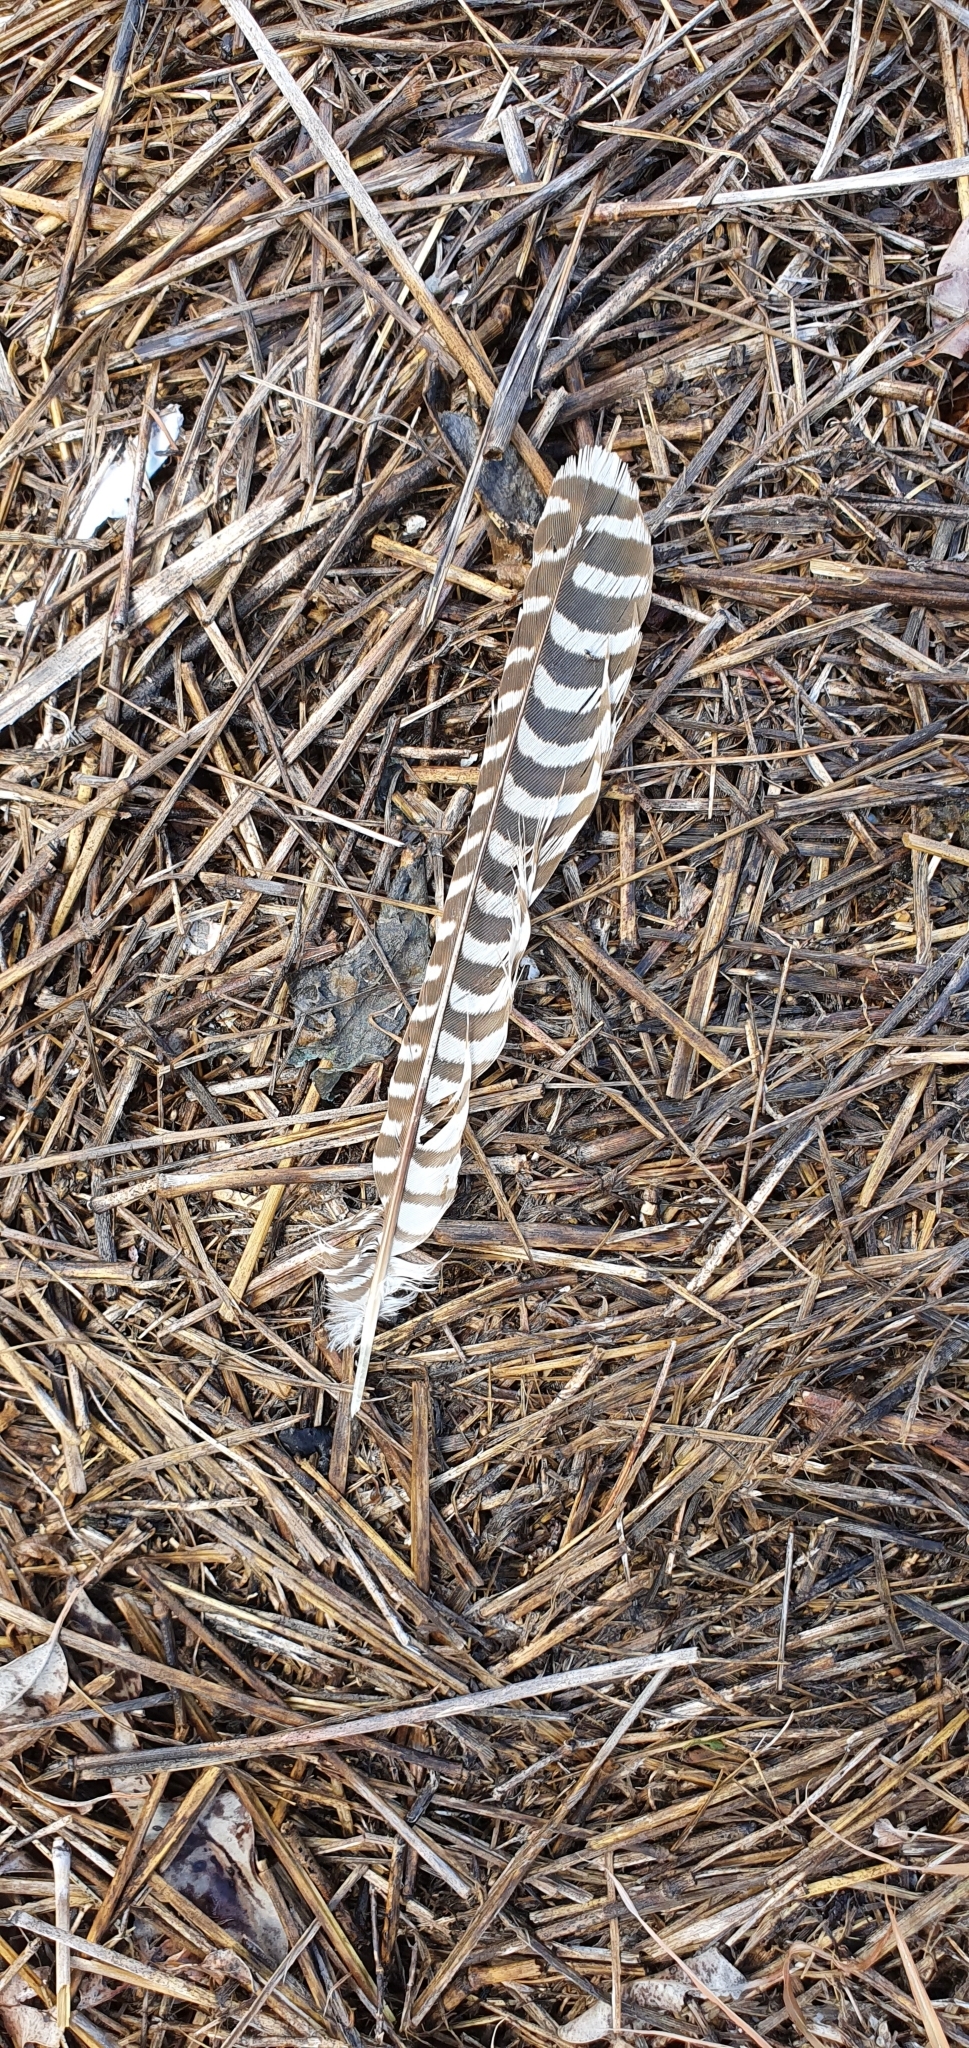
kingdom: Animalia
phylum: Chordata
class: Aves
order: Cuculiformes
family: Cuculidae
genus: Eudynamys
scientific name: Eudynamys orientalis
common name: Pacific koel
